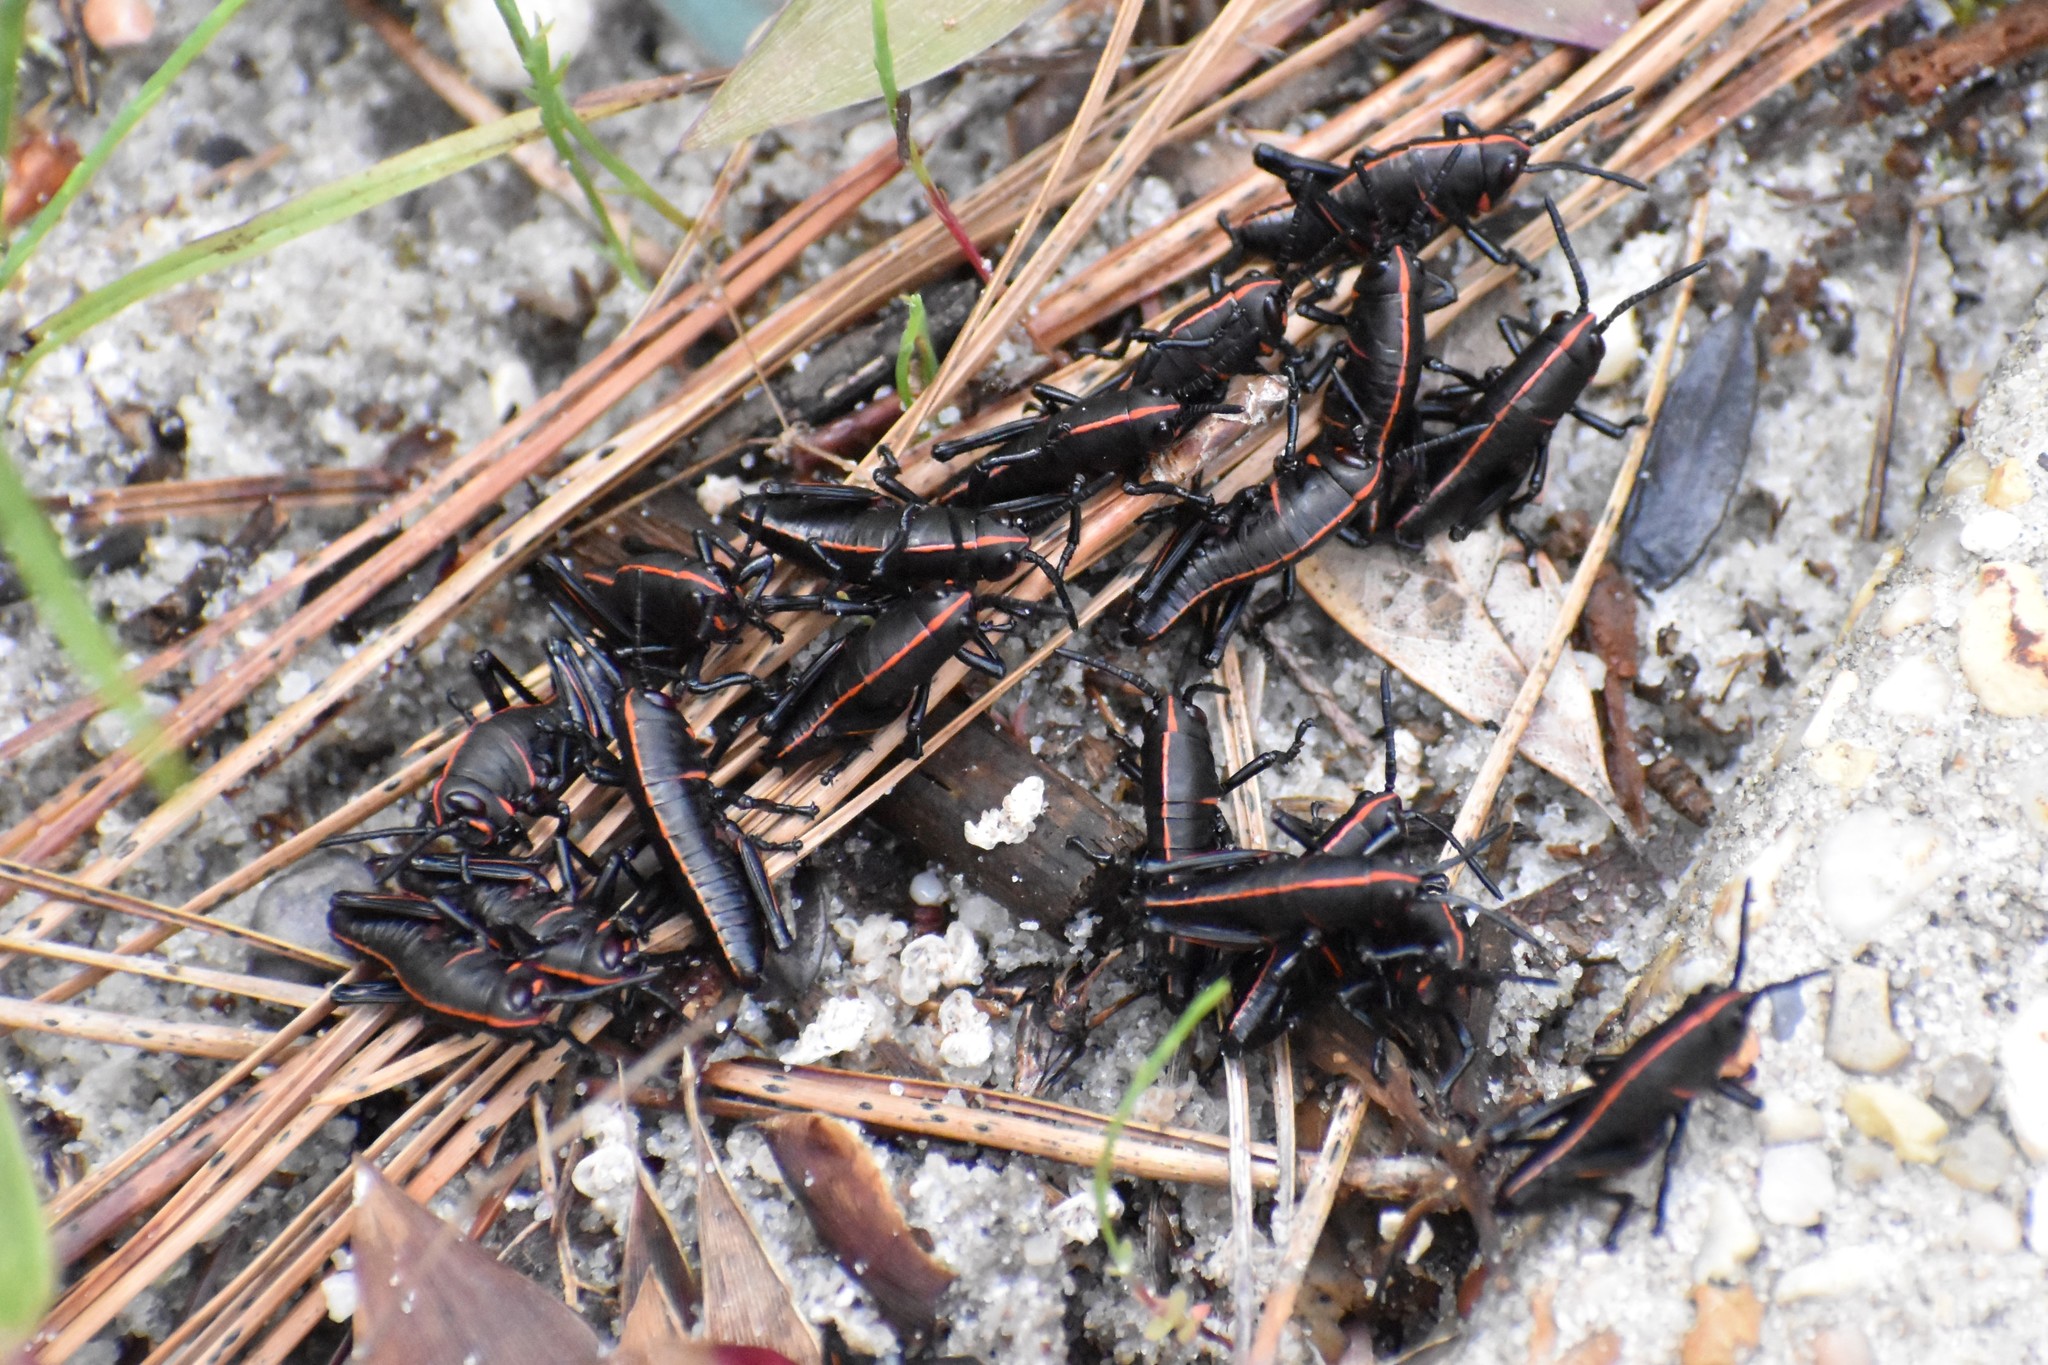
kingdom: Animalia
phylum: Arthropoda
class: Insecta
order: Orthoptera
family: Romaleidae
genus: Romalea
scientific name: Romalea microptera
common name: Eastern lubber grasshopper
